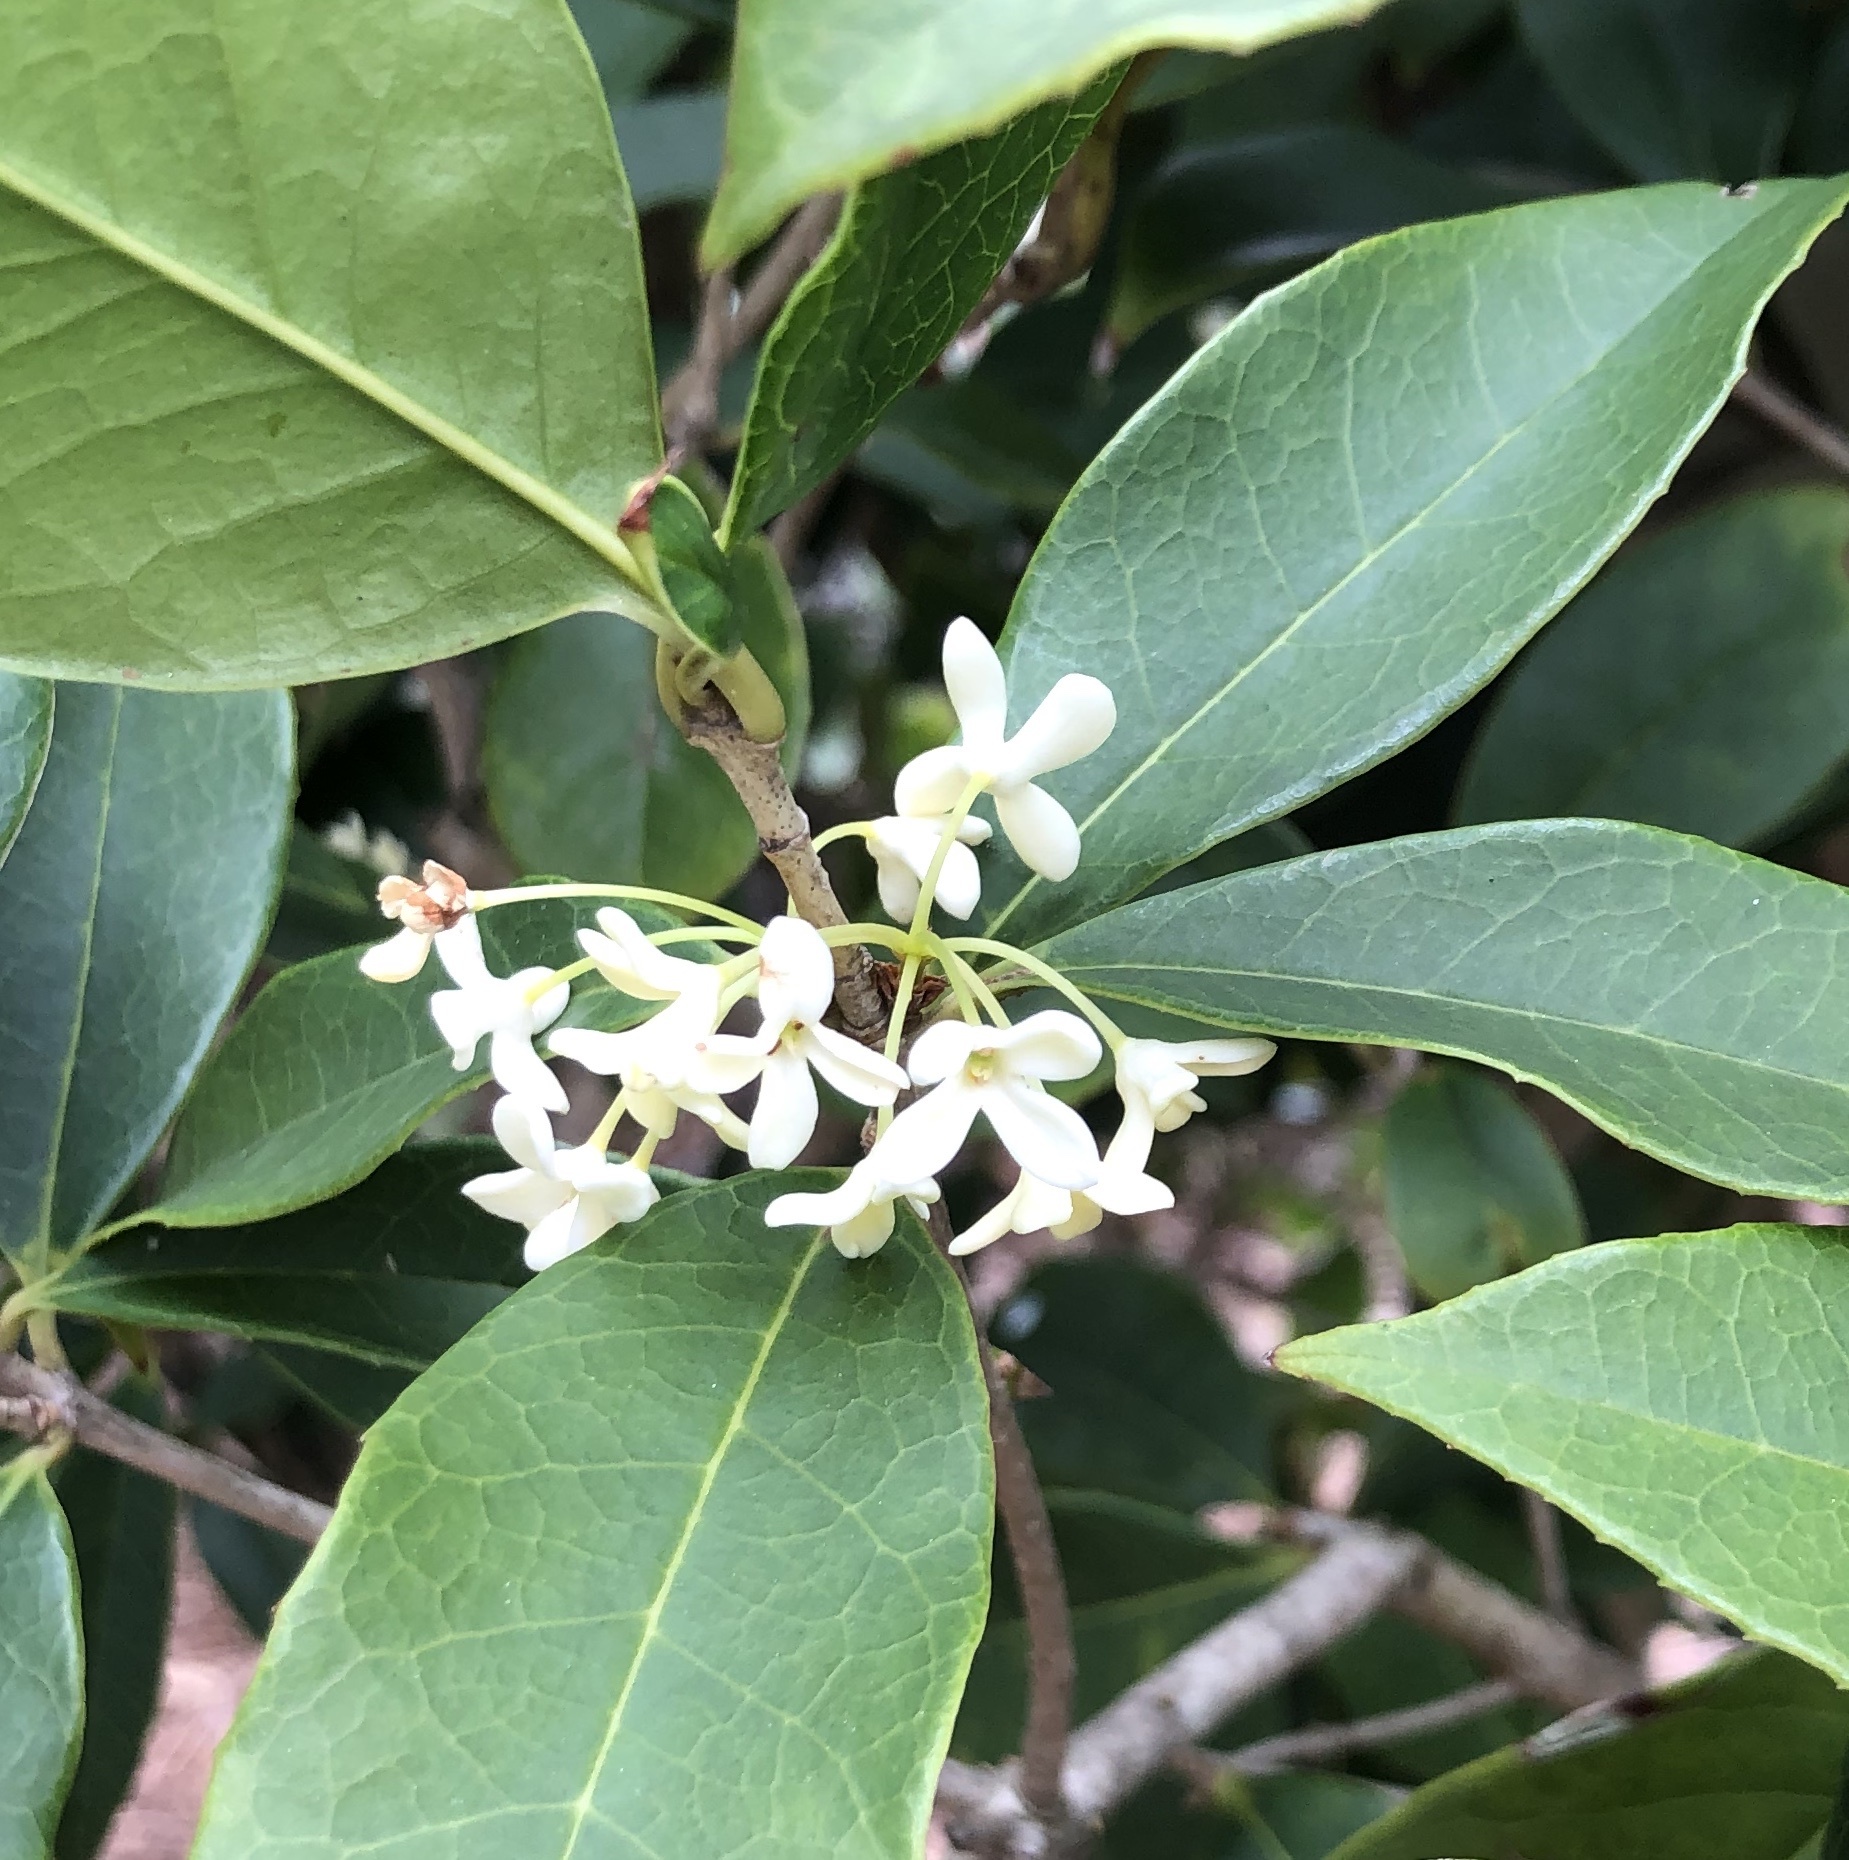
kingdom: Plantae
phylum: Tracheophyta
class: Magnoliopsida
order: Lamiales
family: Oleaceae
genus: Osmanthus
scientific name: Osmanthus fragrans
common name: Sweet osmanthus
